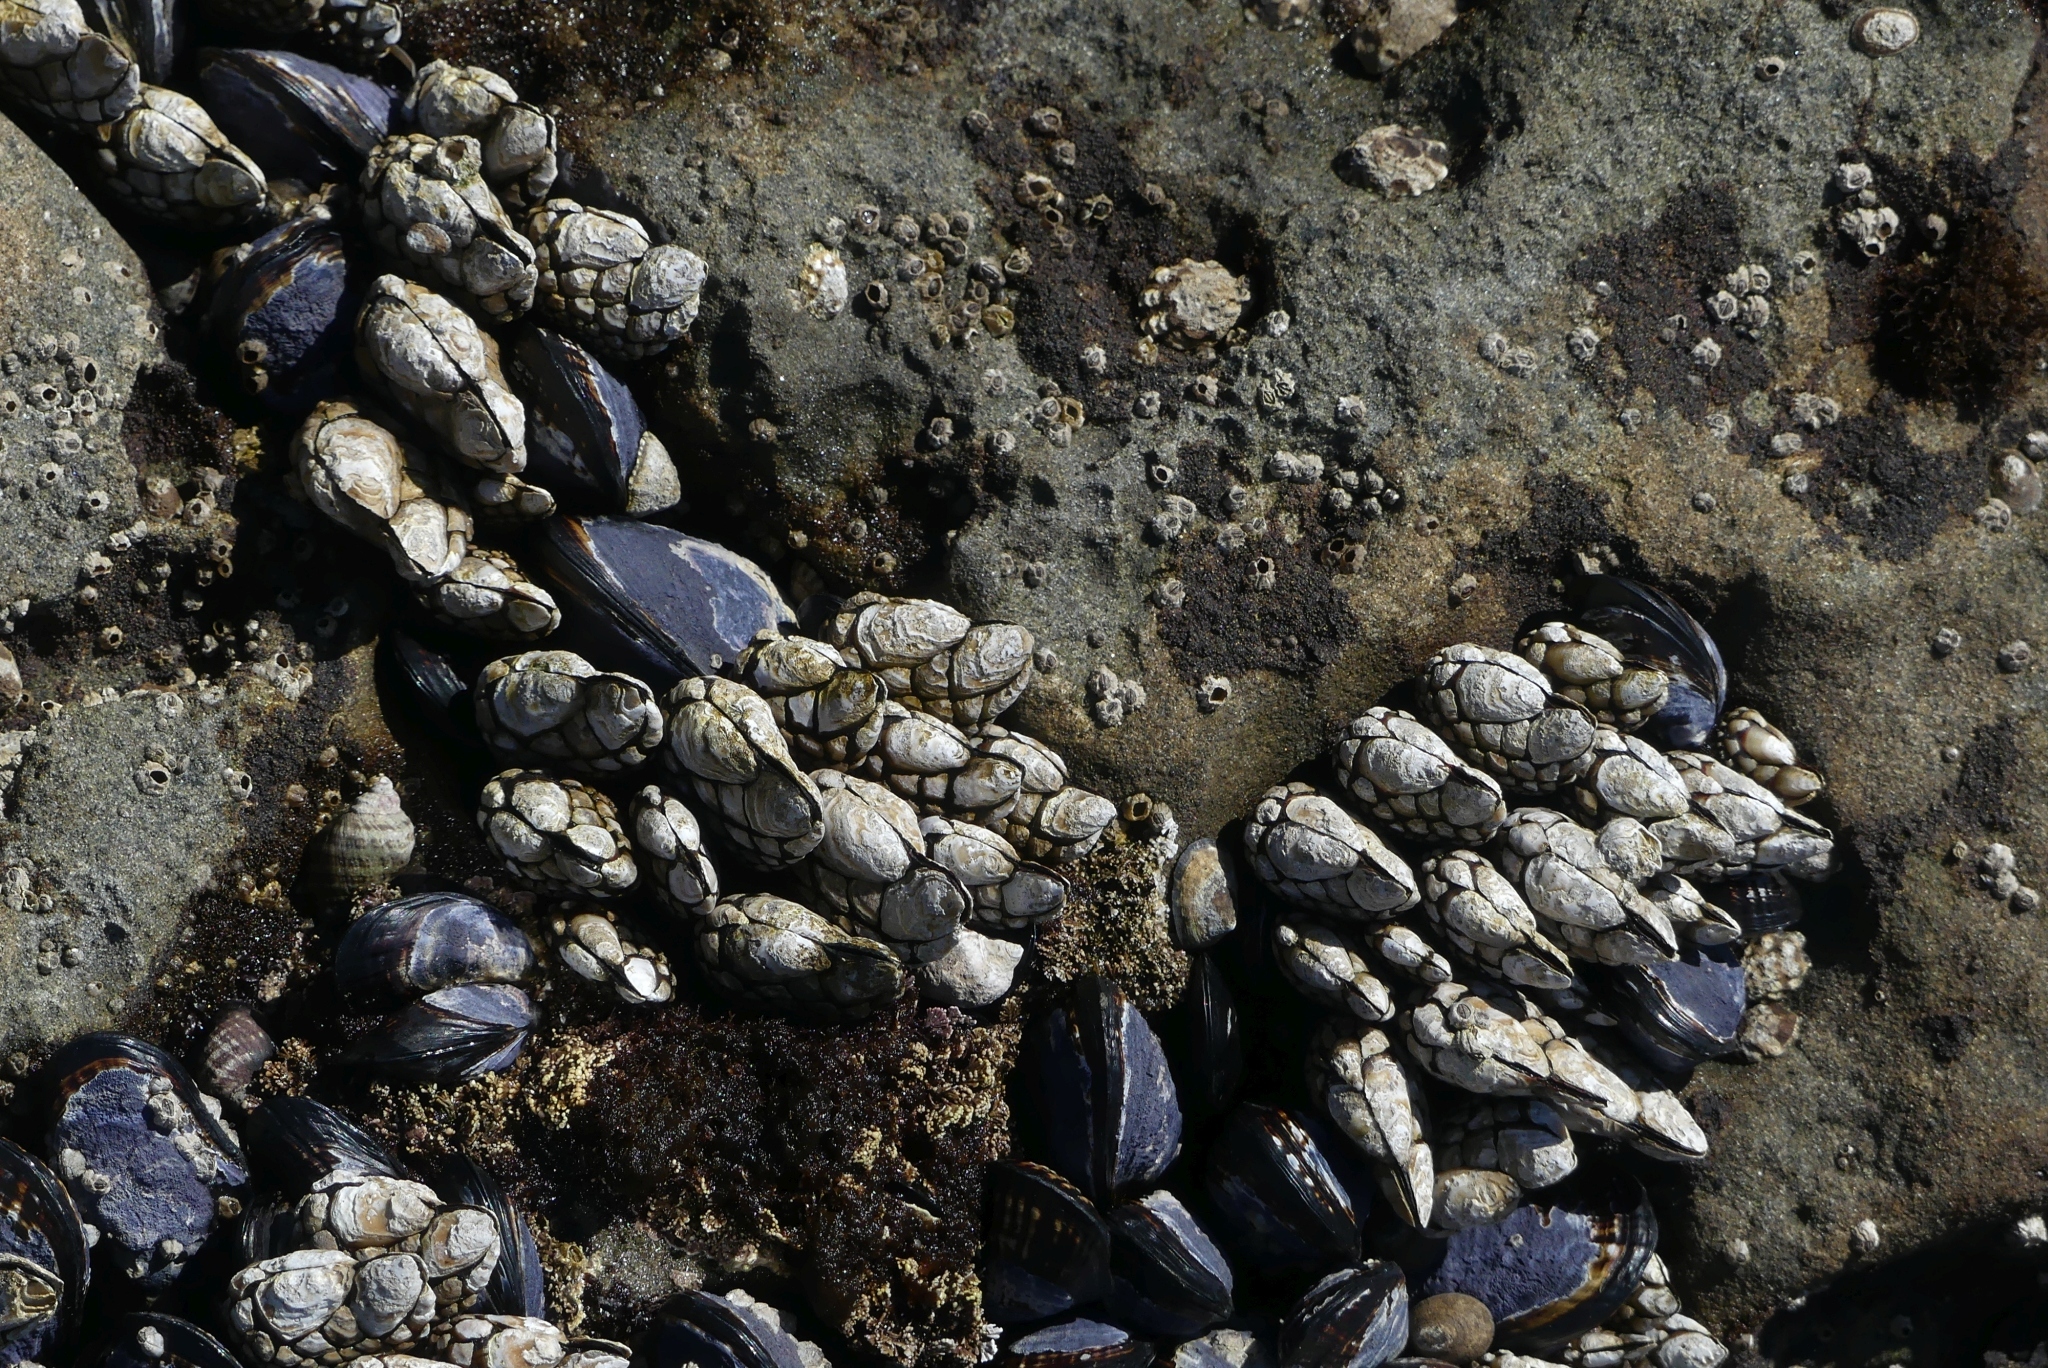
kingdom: Animalia
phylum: Arthropoda
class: Maxillopoda
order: Pedunculata
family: Pollicipedidae
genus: Pollicipes
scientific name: Pollicipes polymerus
